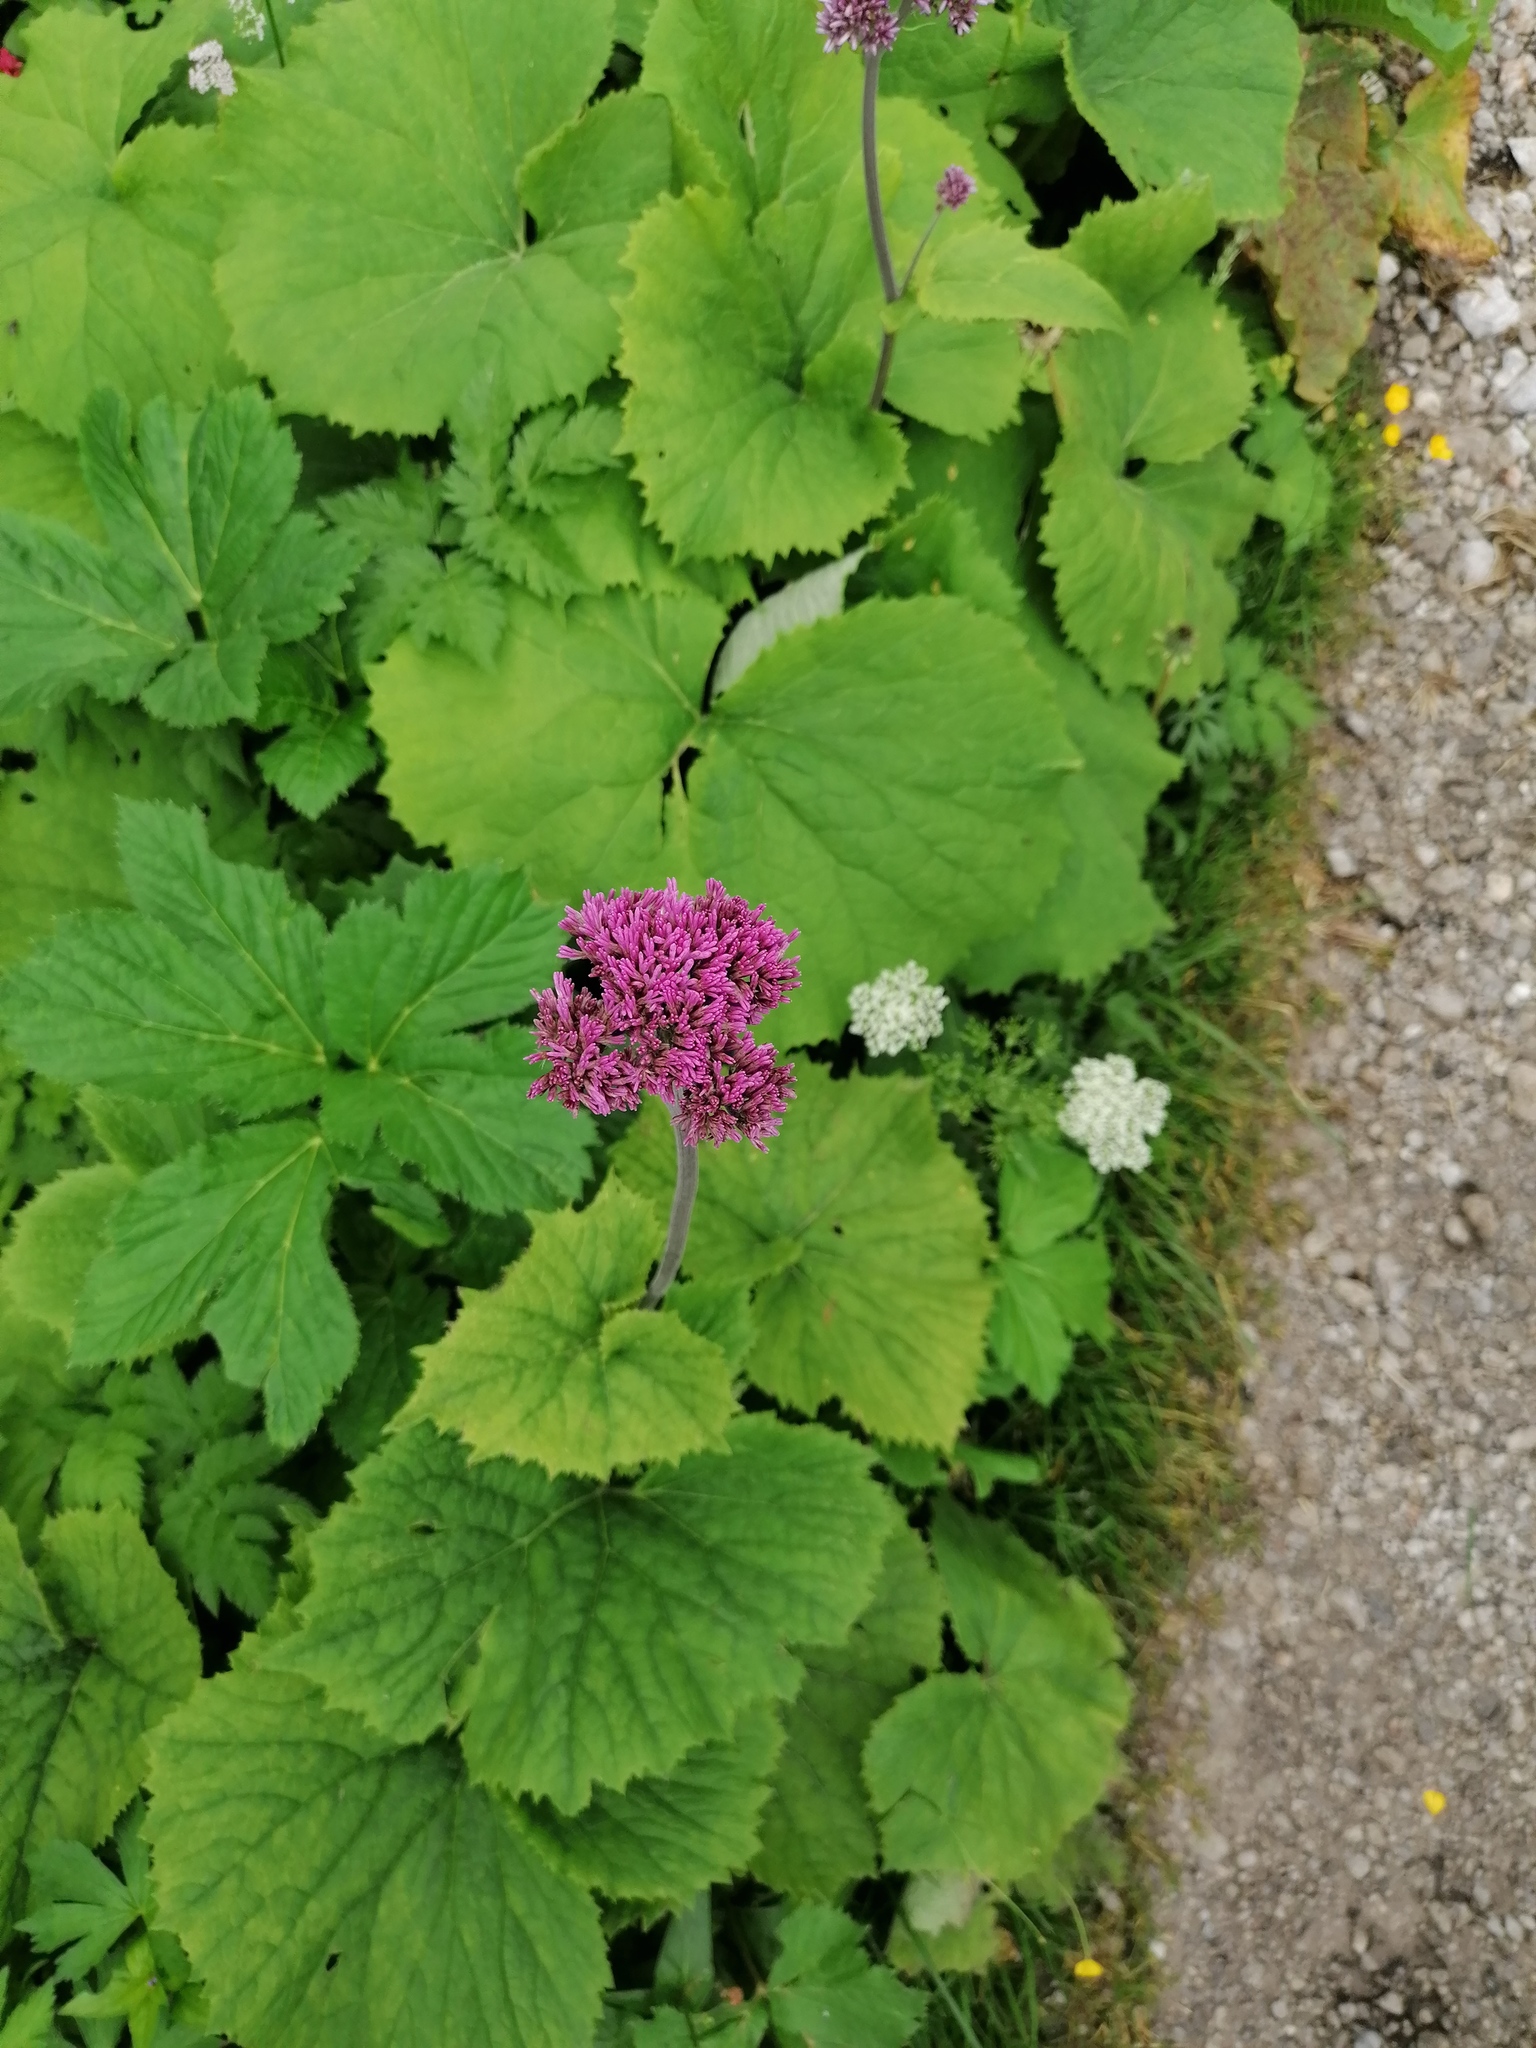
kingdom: Plantae
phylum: Tracheophyta
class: Magnoliopsida
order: Asterales
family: Asteraceae
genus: Adenostyles
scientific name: Adenostyles alliariae
